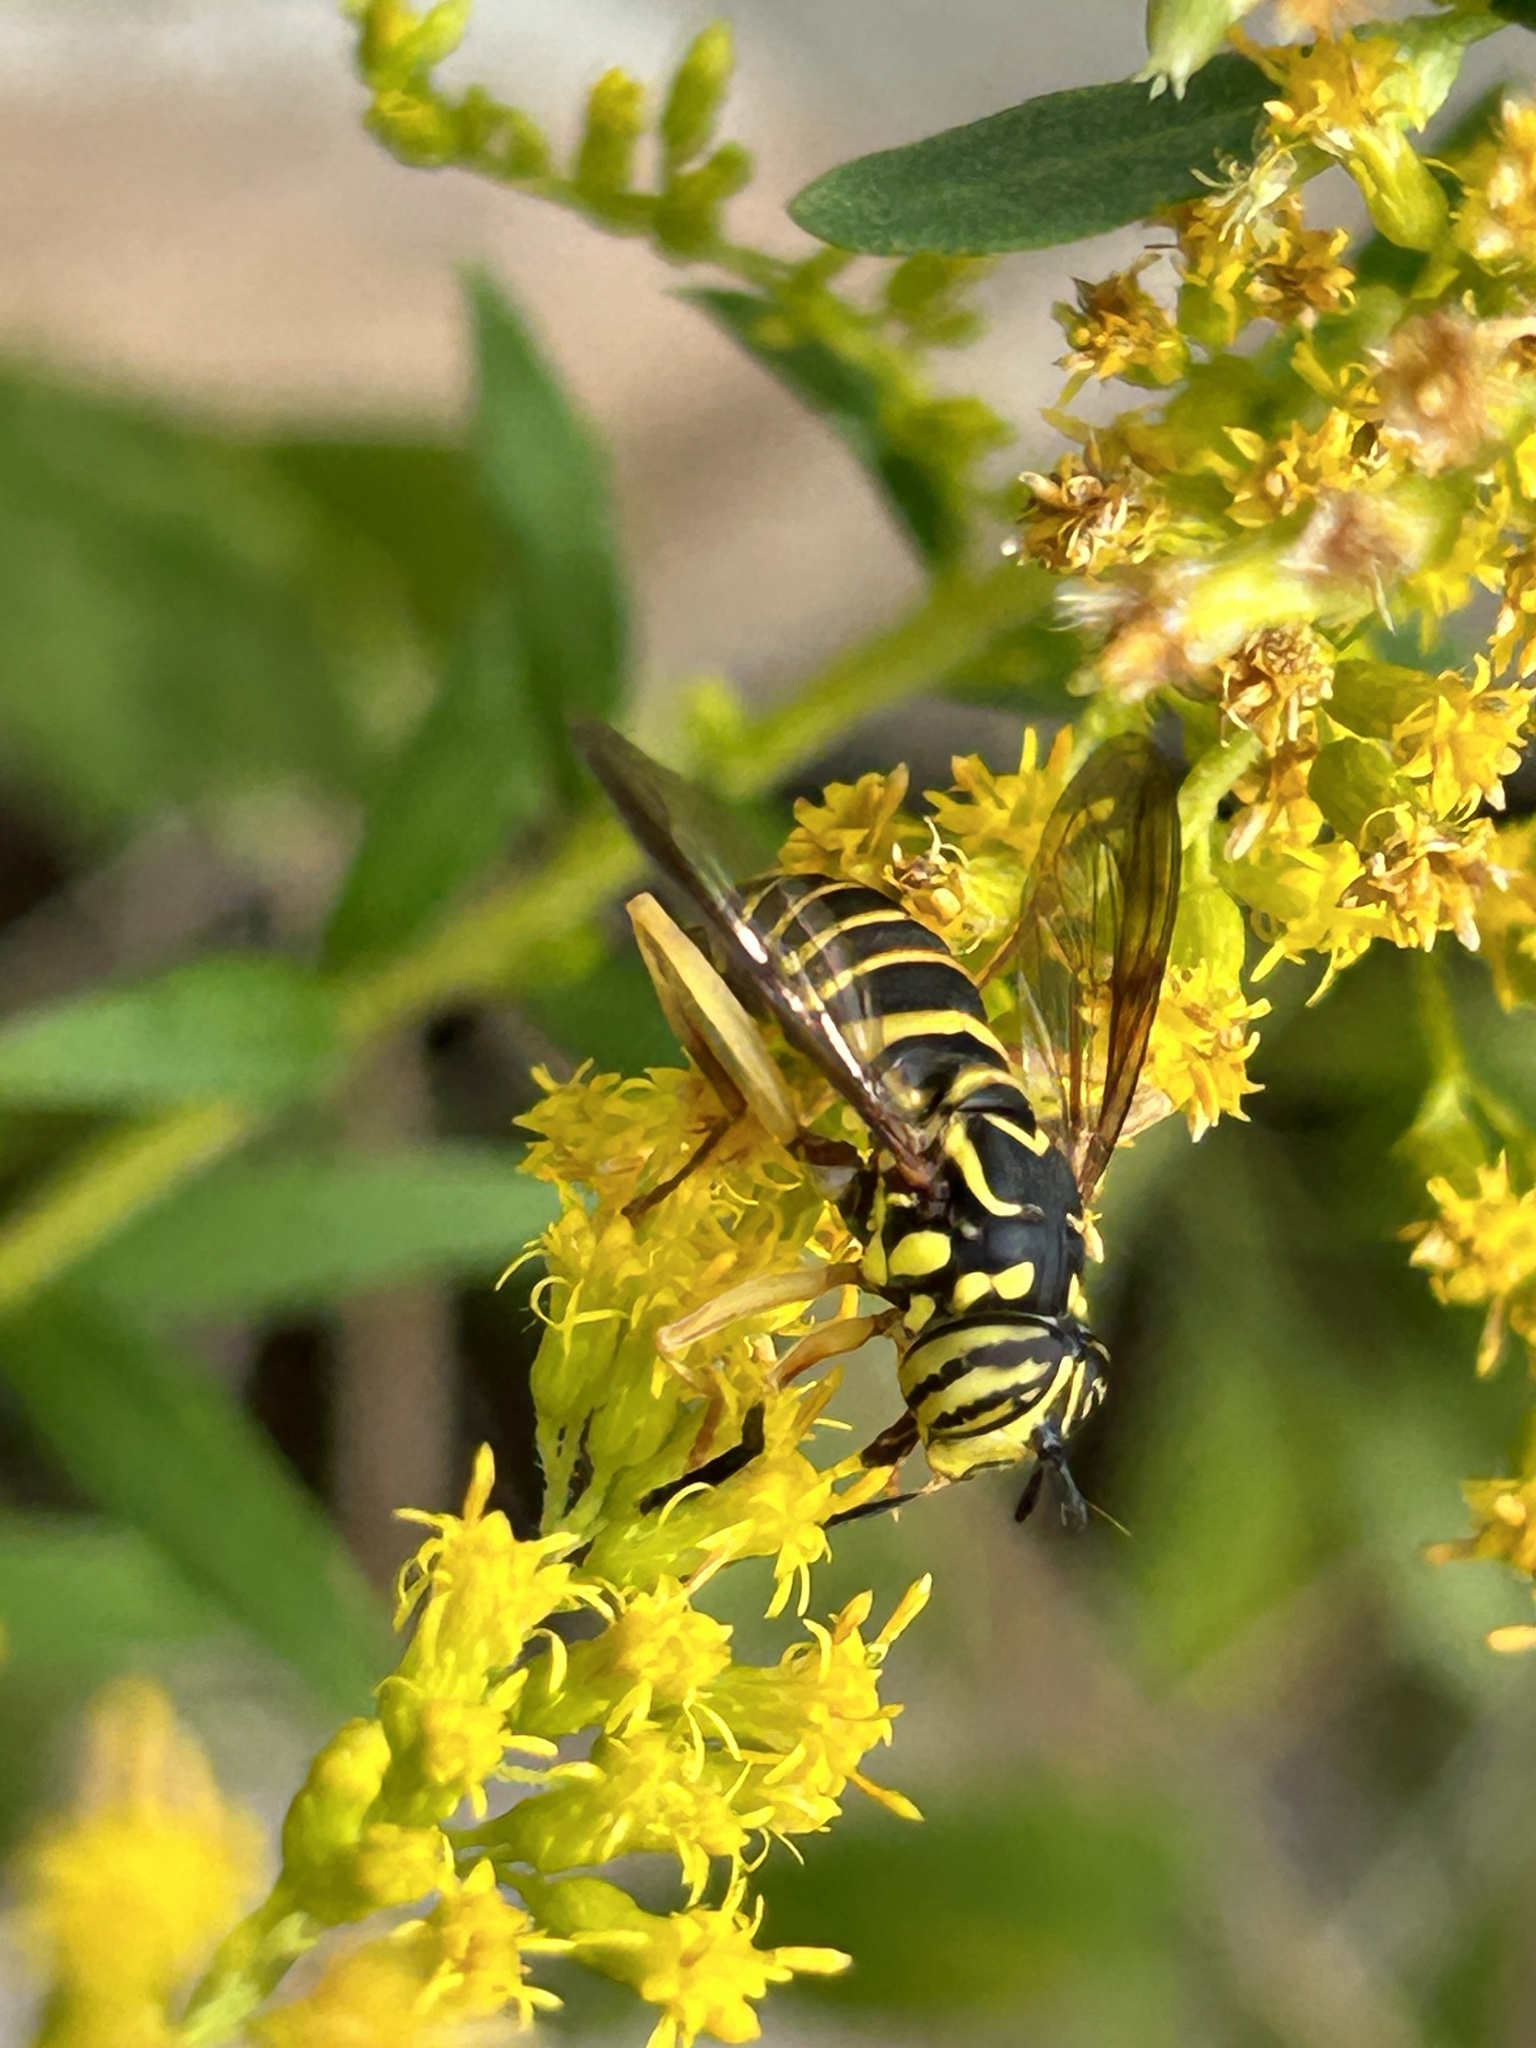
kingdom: Animalia
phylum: Arthropoda
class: Insecta
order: Diptera
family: Syrphidae
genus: Spilomyia
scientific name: Spilomyia longicornis
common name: Eastern hornet fly
